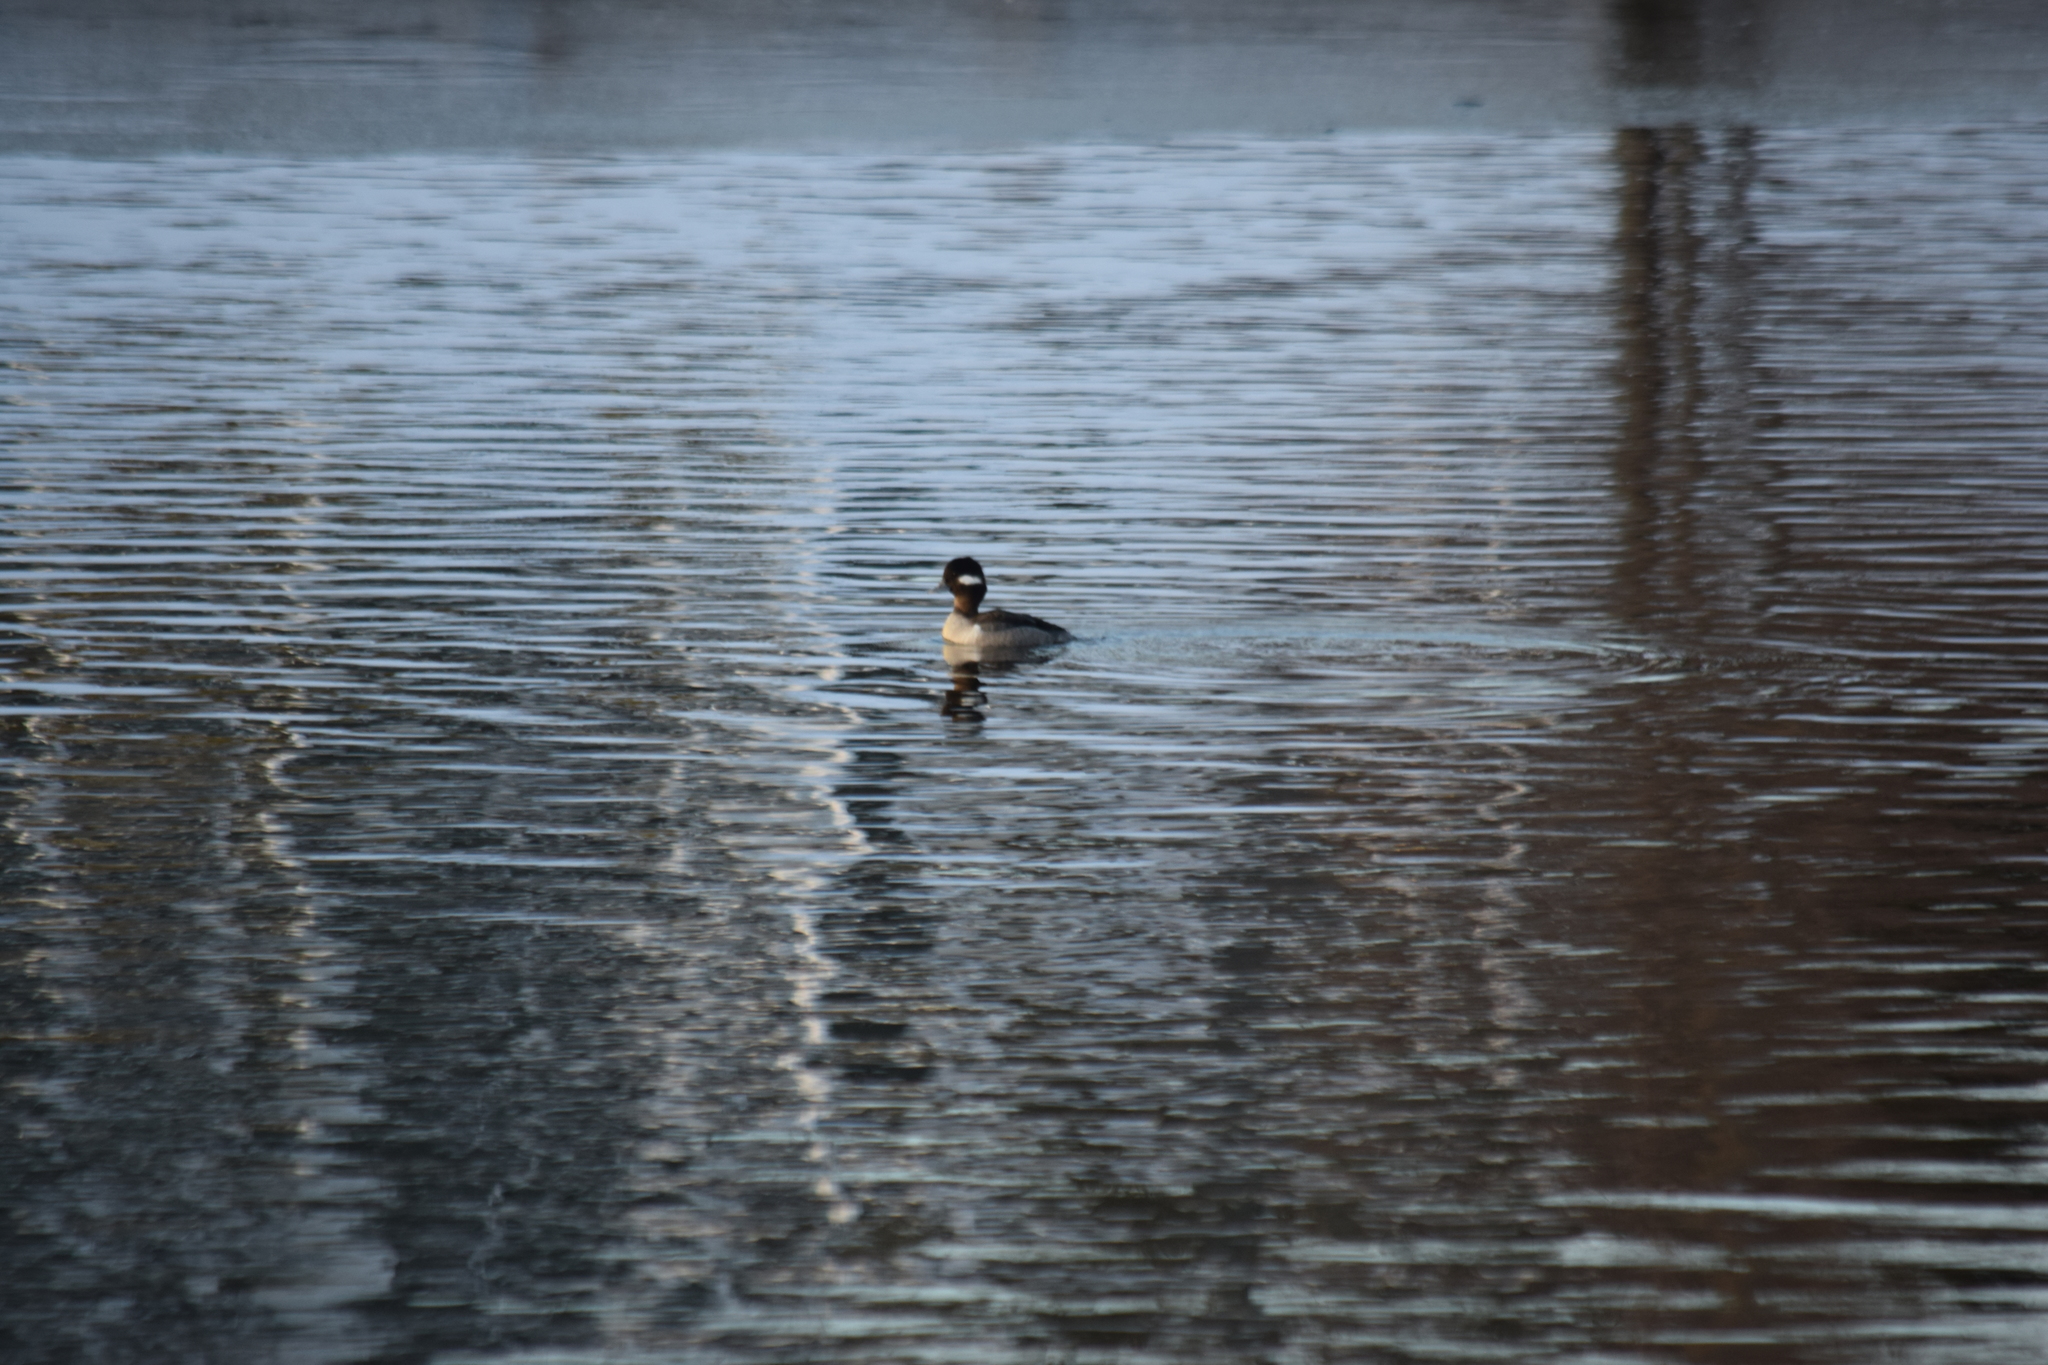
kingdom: Animalia
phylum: Chordata
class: Aves
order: Anseriformes
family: Anatidae
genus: Bucephala
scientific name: Bucephala albeola
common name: Bufflehead
